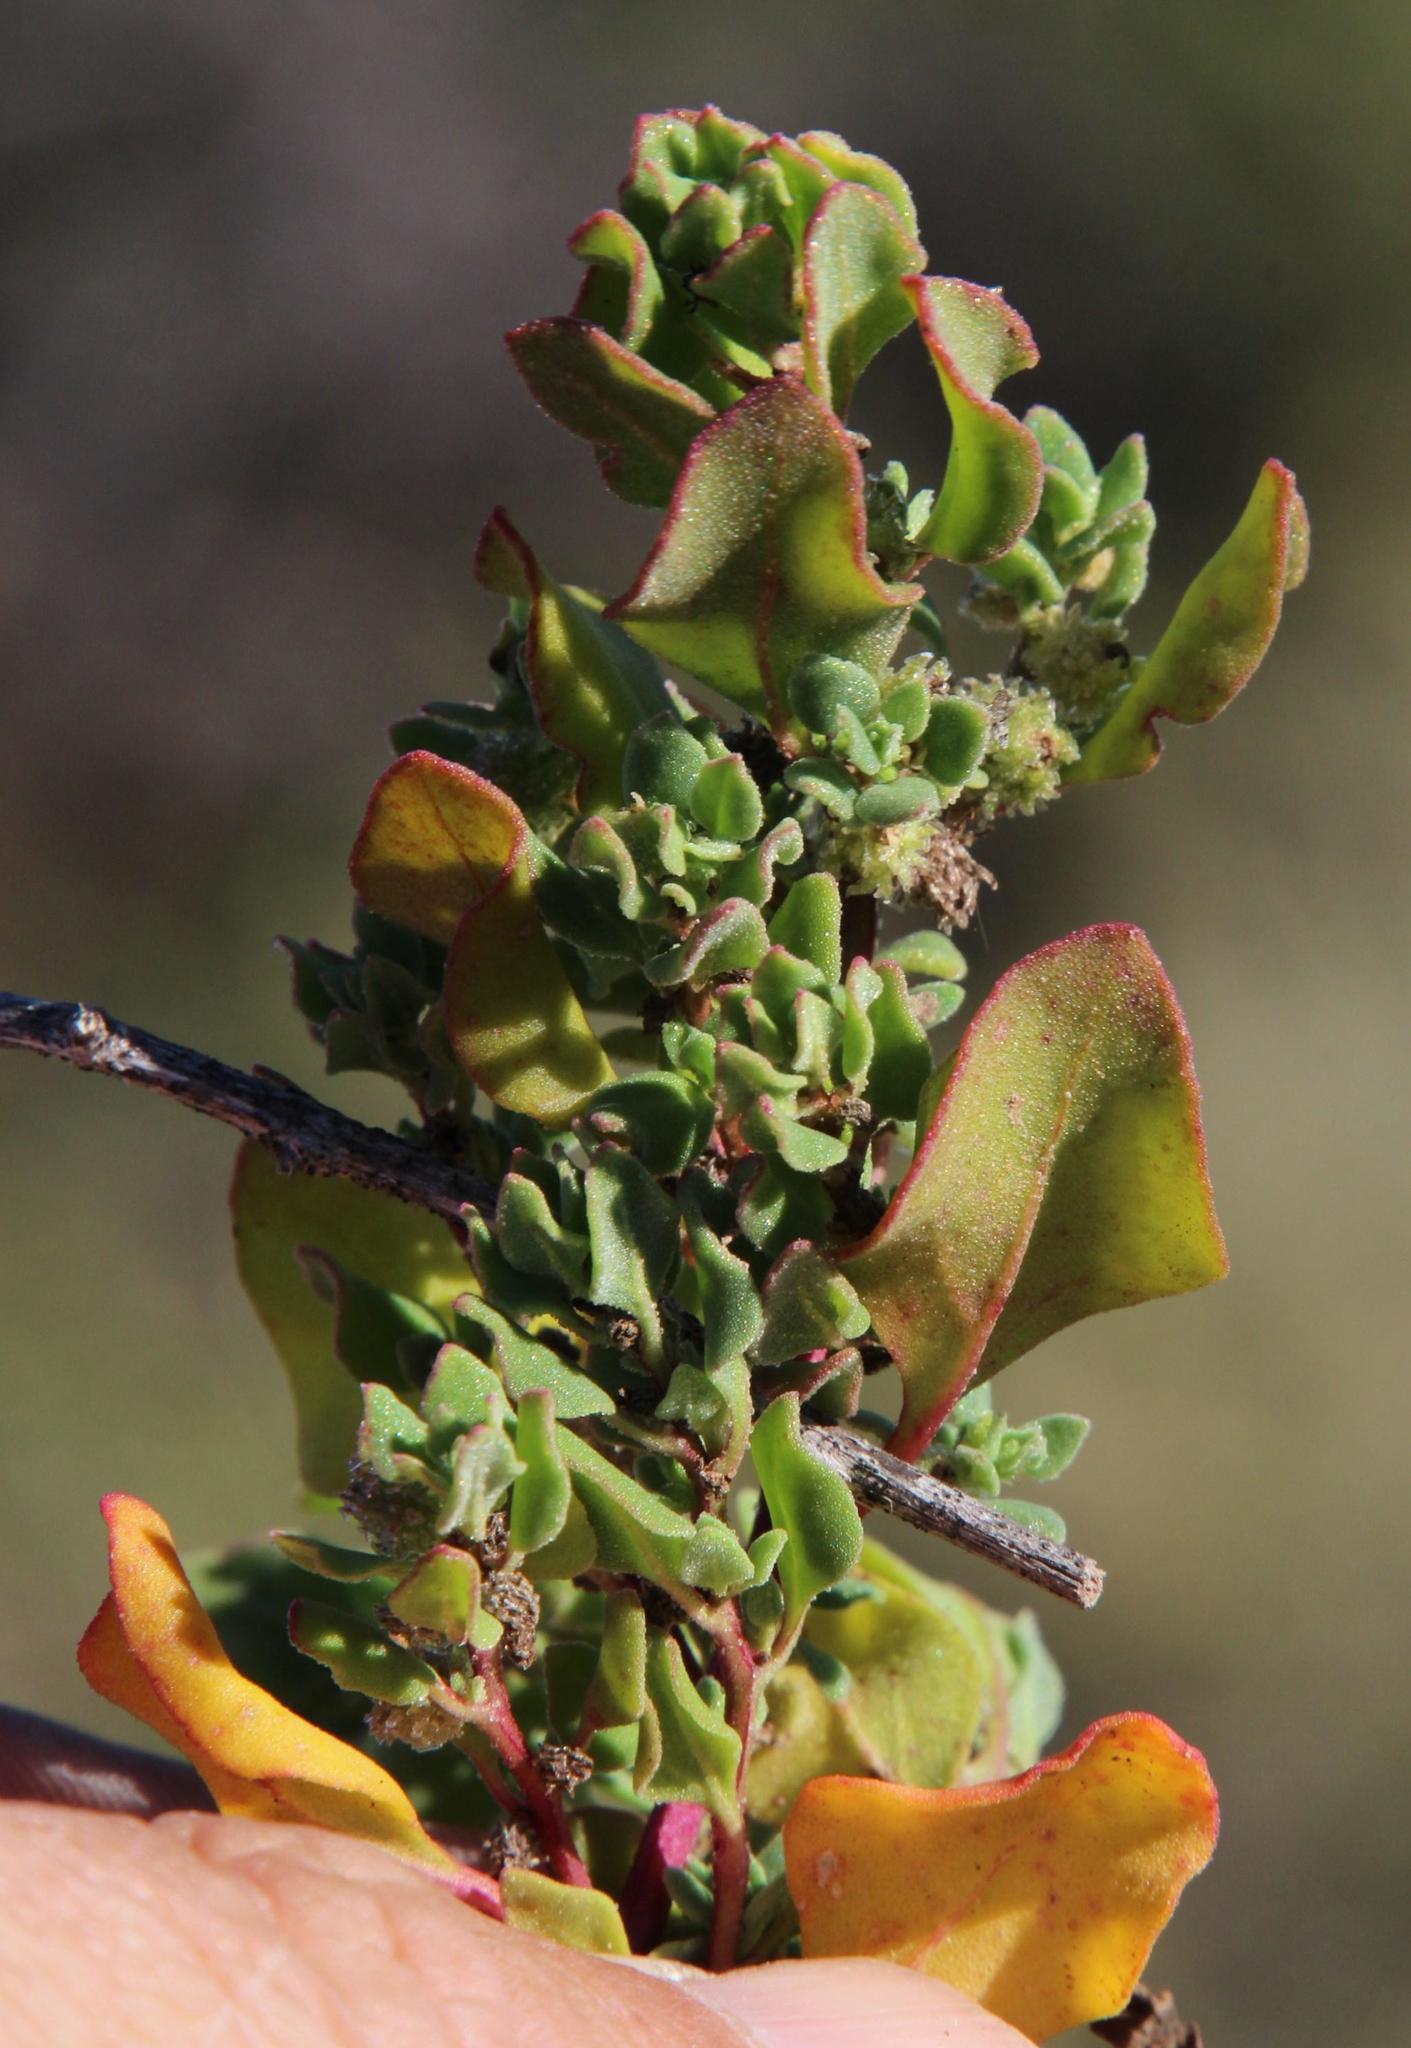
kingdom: Plantae
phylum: Tracheophyta
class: Magnoliopsida
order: Caryophyllales
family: Aizoaceae
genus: Tetragonia
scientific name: Tetragonia microptera
